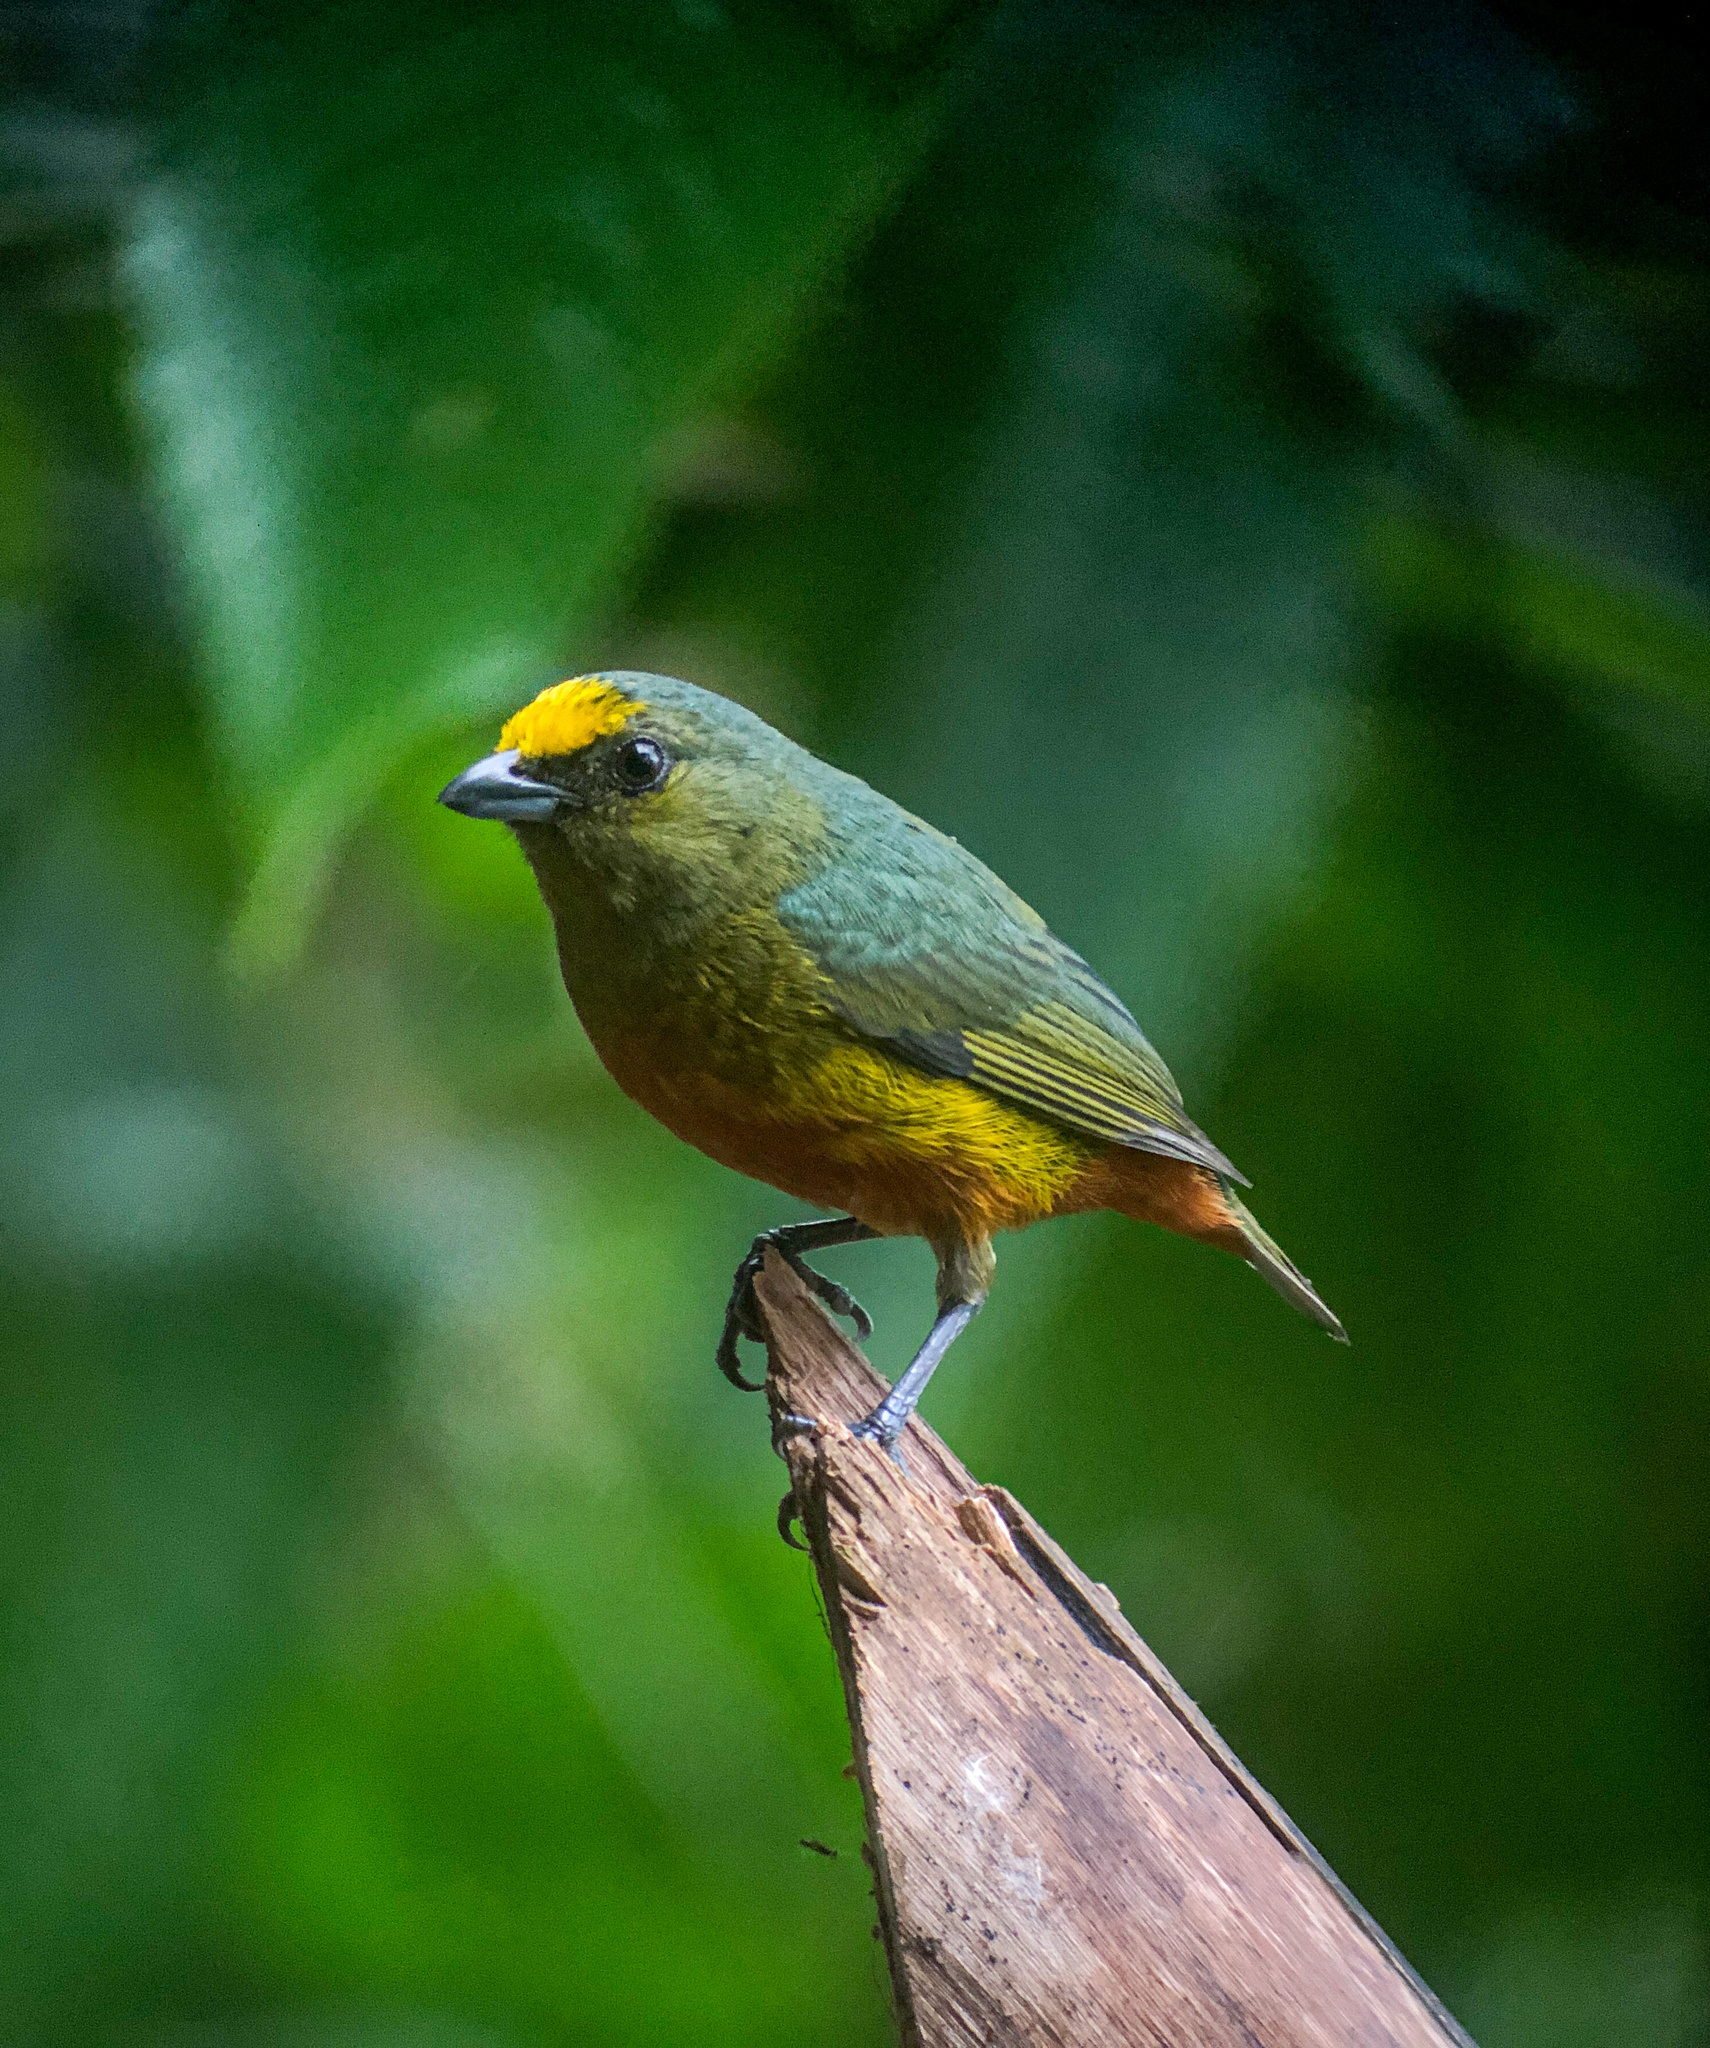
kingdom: Animalia
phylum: Chordata
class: Aves
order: Passeriformes
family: Fringillidae
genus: Euphonia
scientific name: Euphonia gouldi
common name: Olive-backed euphonia
